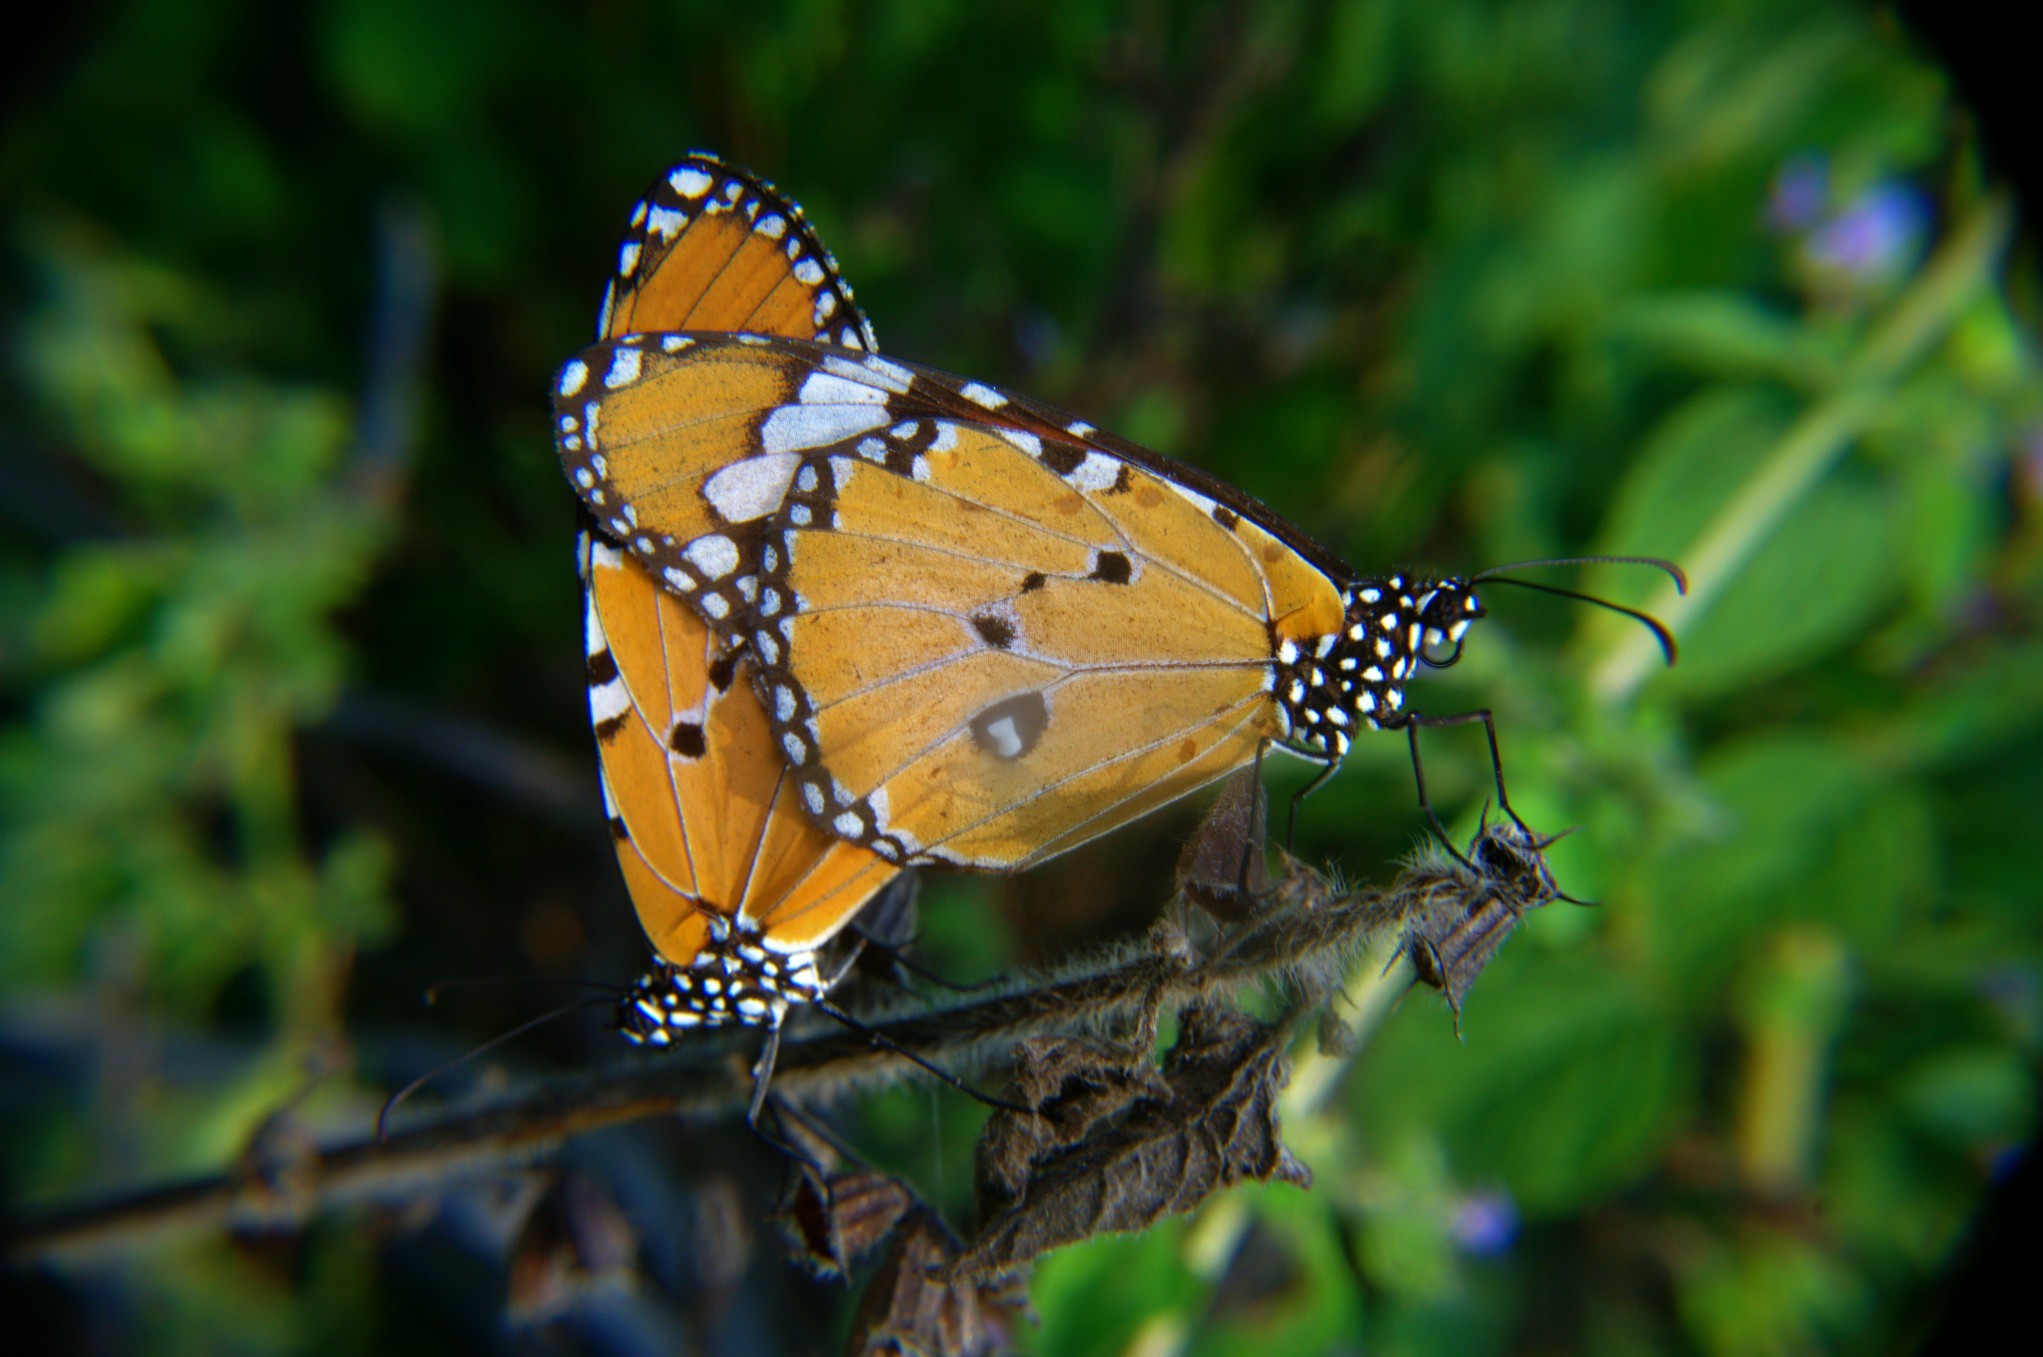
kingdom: Animalia
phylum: Arthropoda
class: Insecta
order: Lepidoptera
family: Nymphalidae
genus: Danaus
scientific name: Danaus chrysippus
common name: Plain tiger
